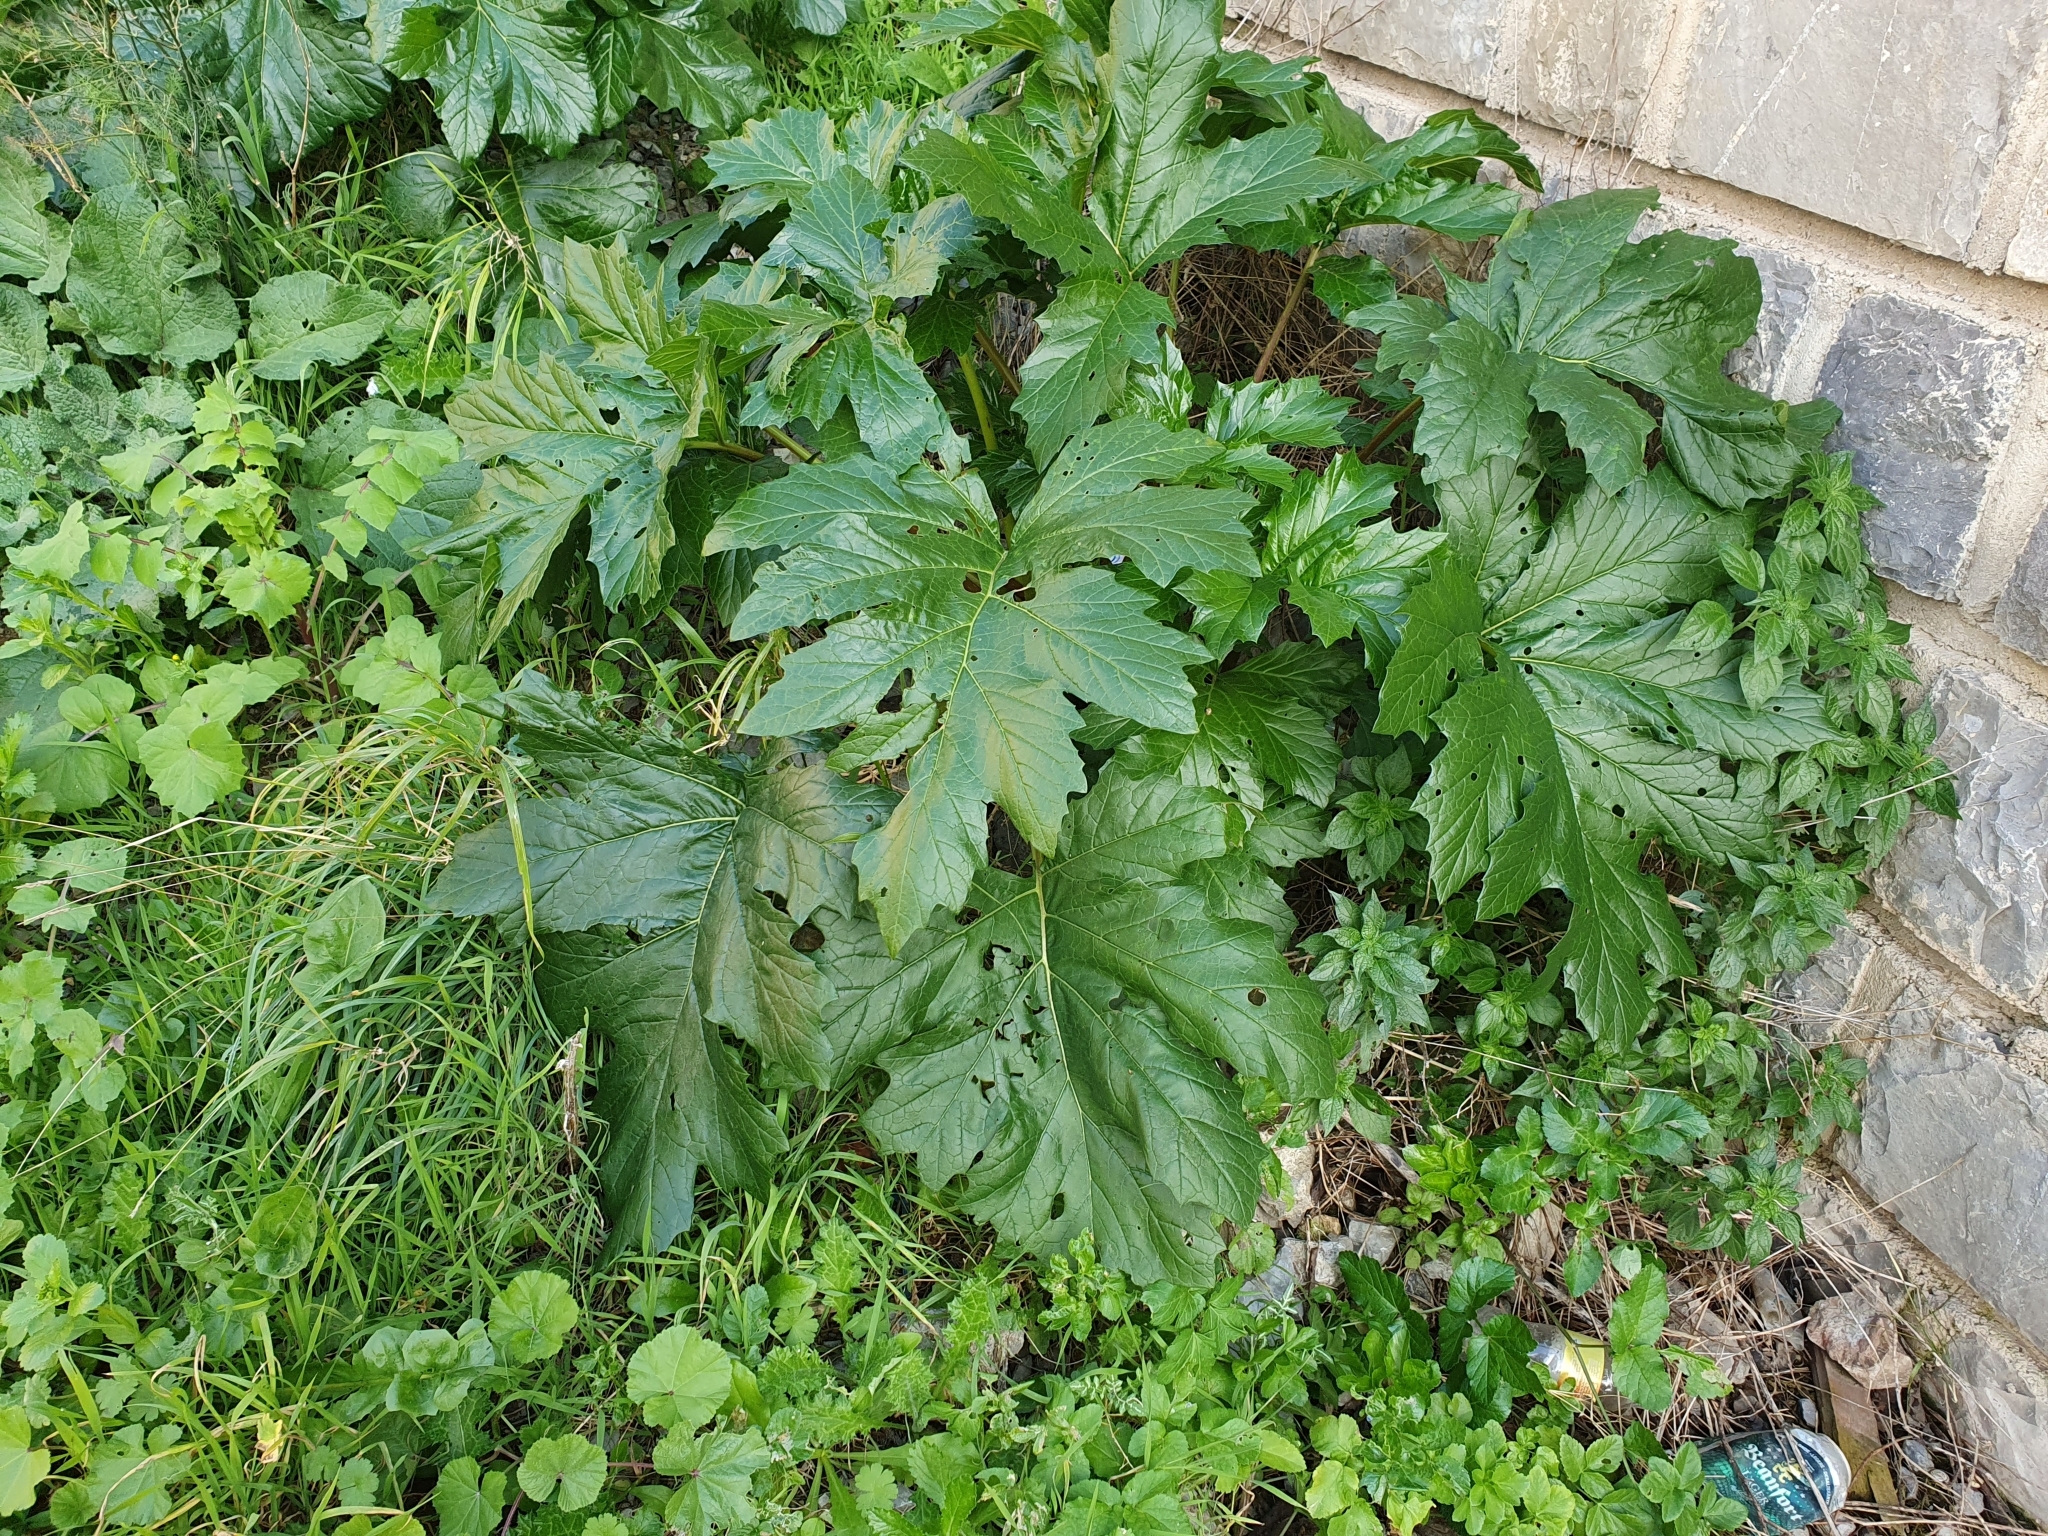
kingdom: Plantae
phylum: Tracheophyta
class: Magnoliopsida
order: Lamiales
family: Acanthaceae
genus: Acanthus
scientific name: Acanthus mollis
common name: Bear's-breech
